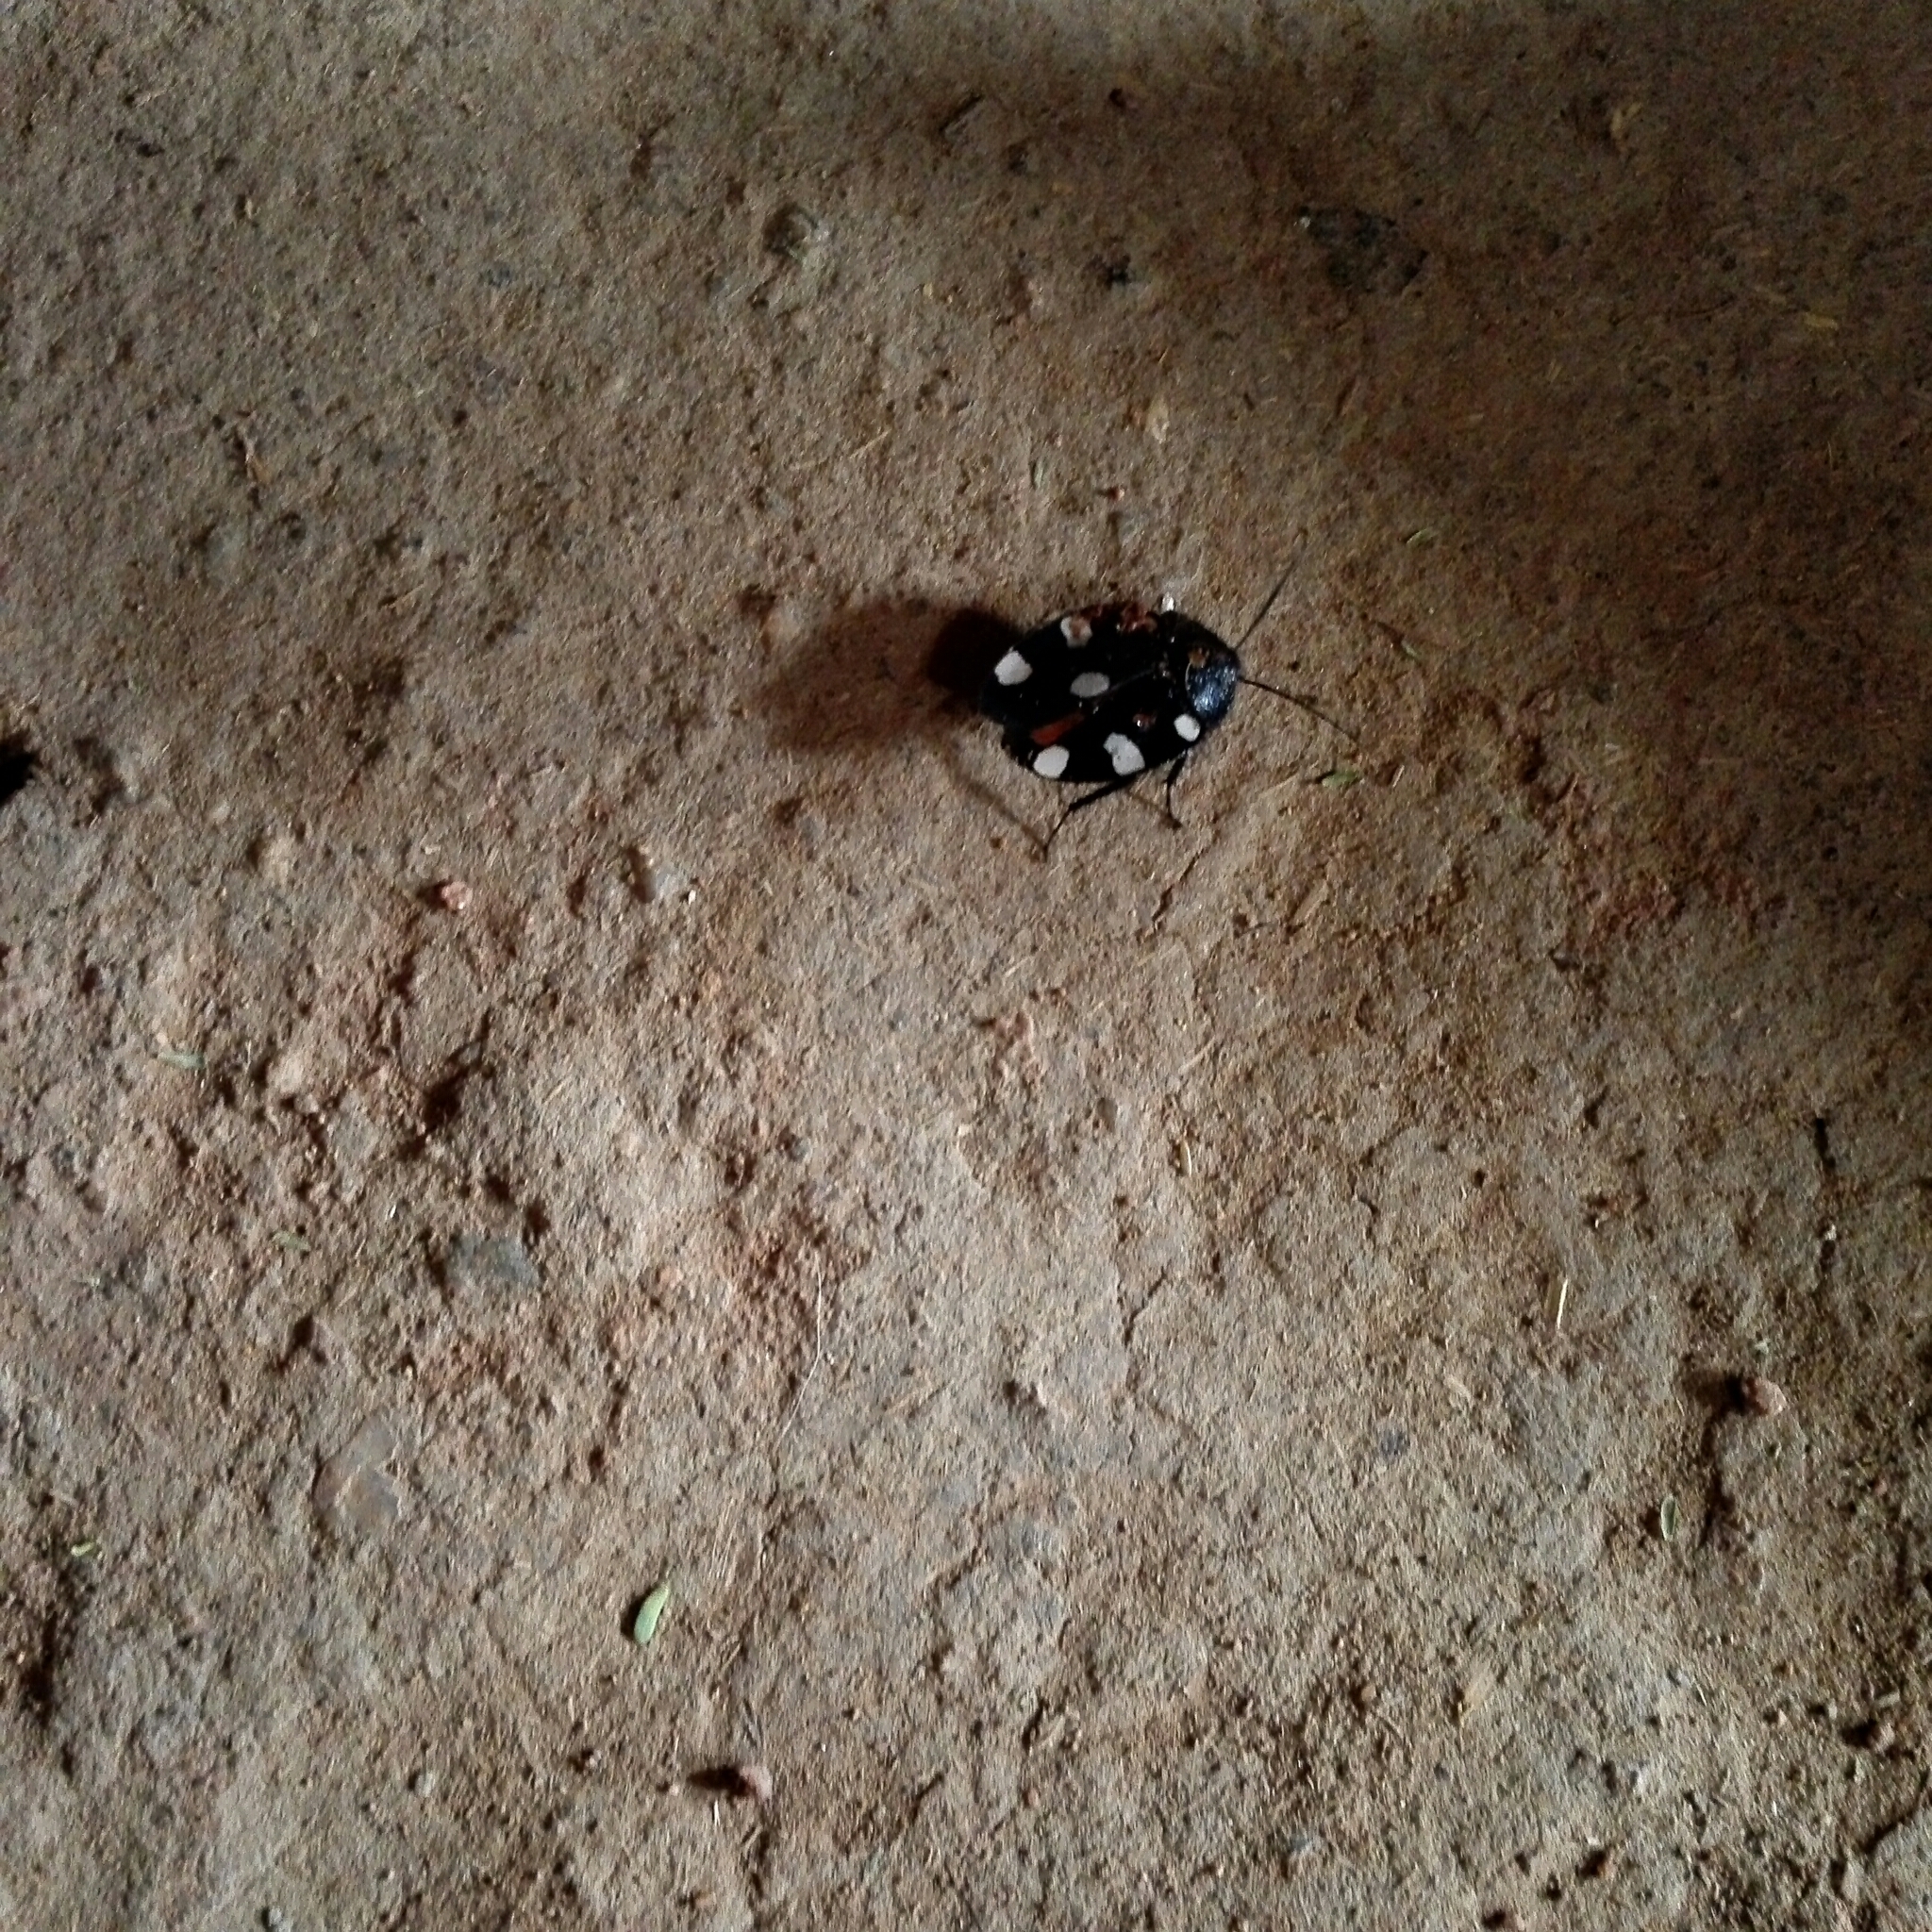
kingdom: Animalia
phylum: Arthropoda
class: Insecta
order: Blattodea
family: Corydiidae
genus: Therea
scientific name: Therea petiveriana
